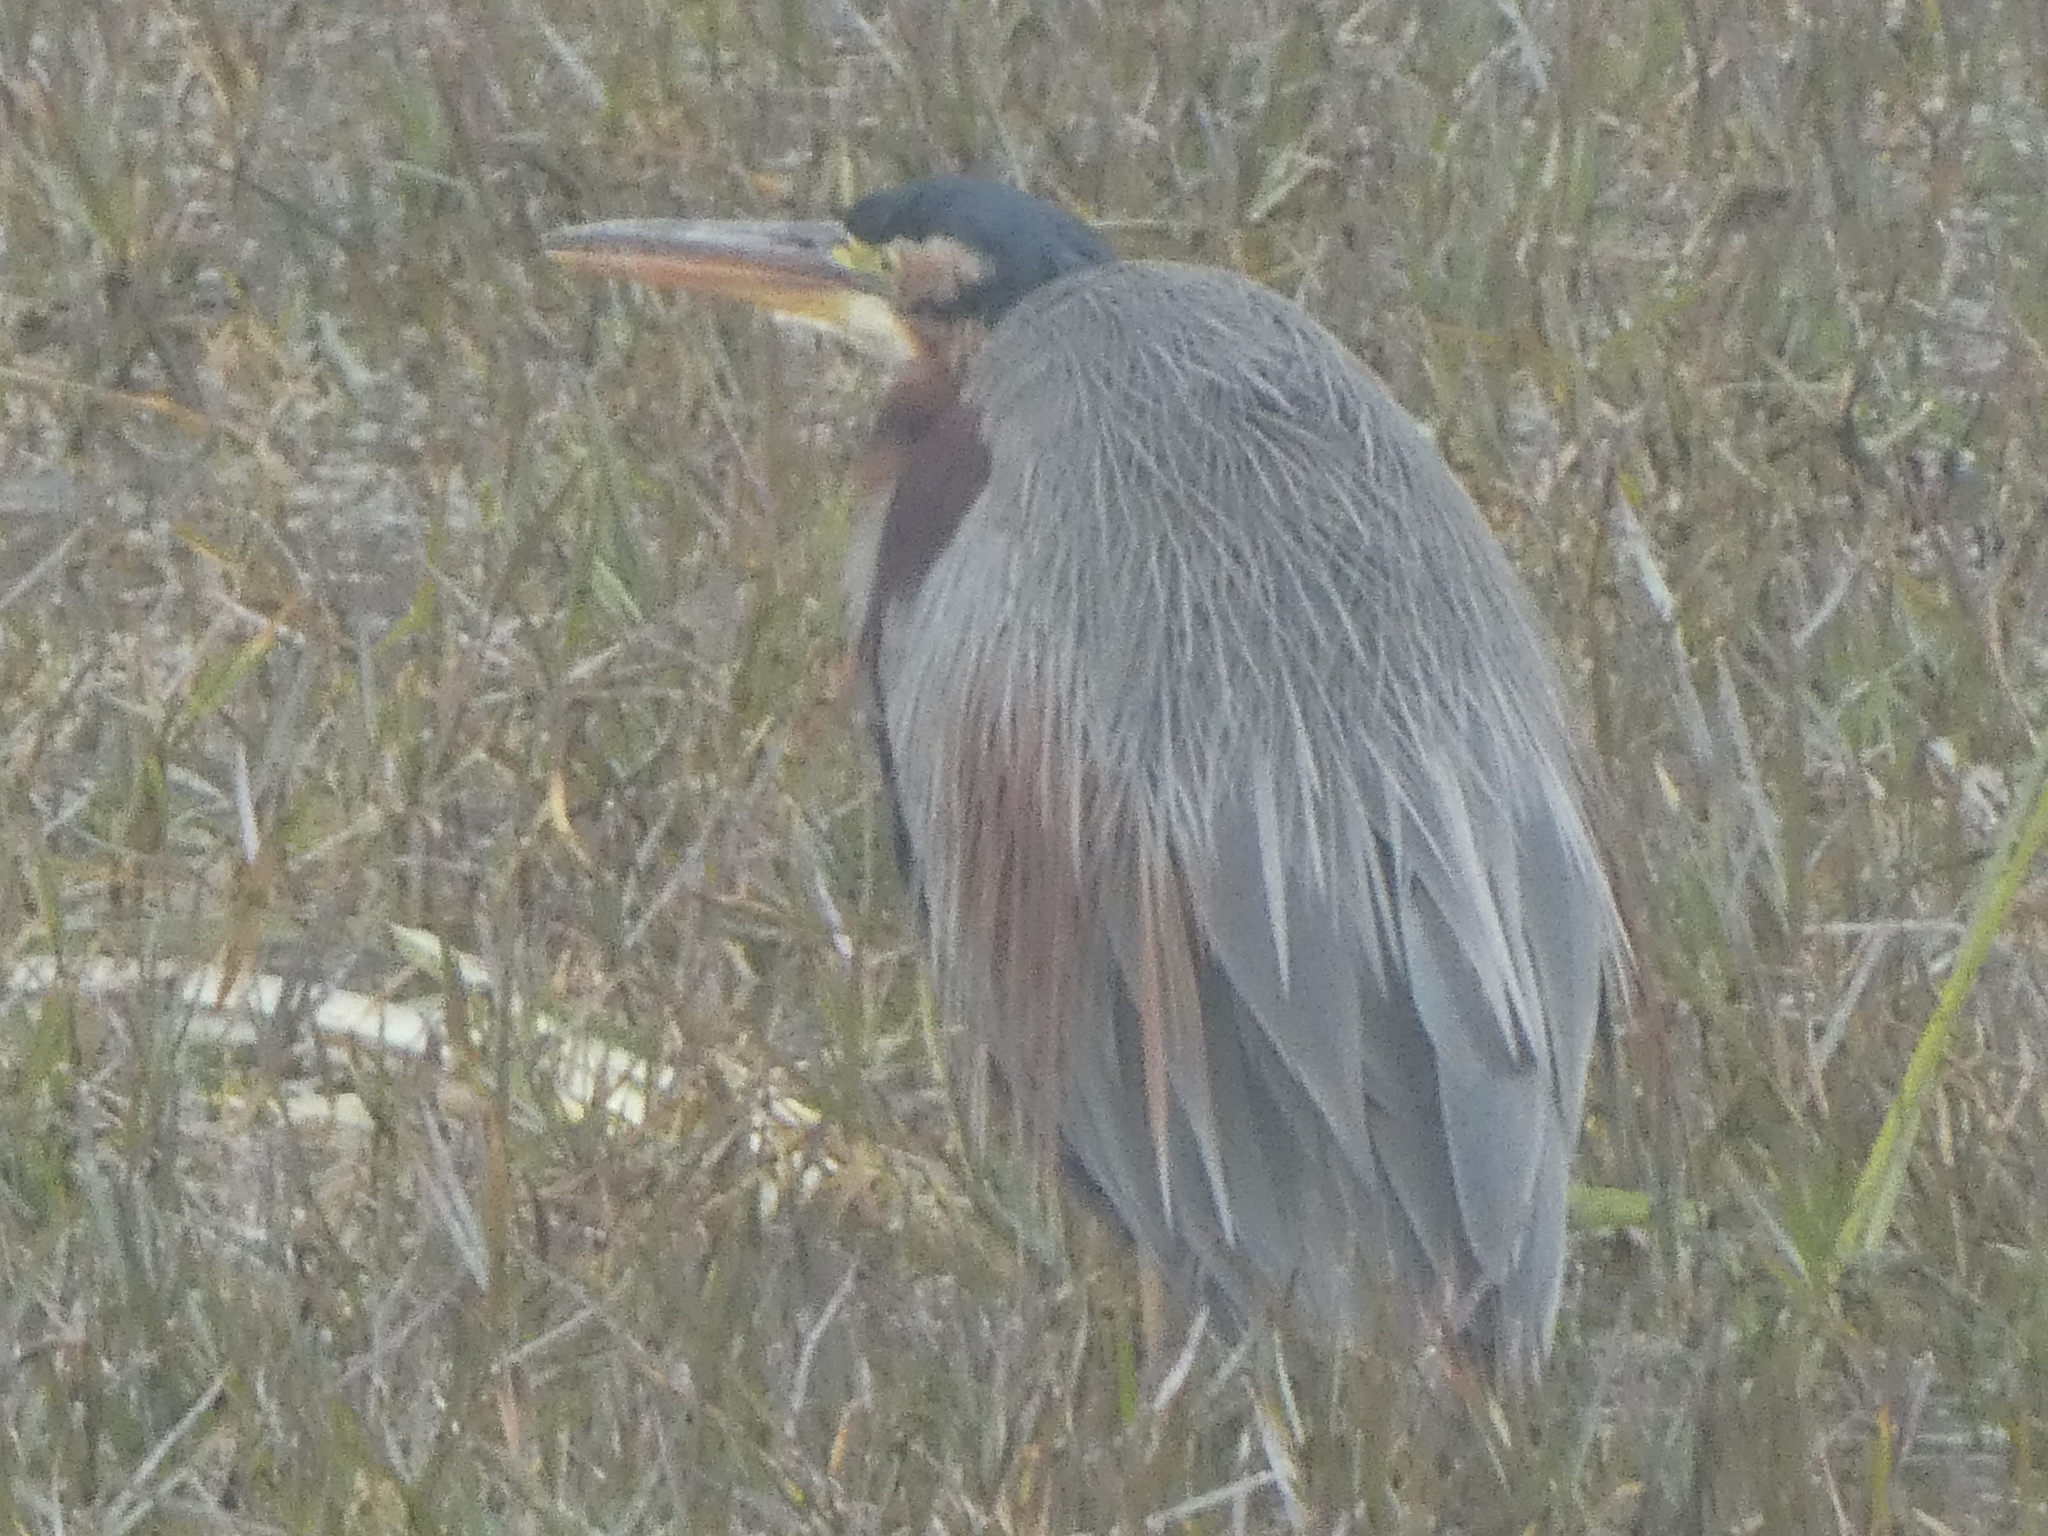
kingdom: Animalia
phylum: Chordata
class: Aves
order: Pelecaniformes
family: Ardeidae
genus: Ardea
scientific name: Ardea purpurea
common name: Purple heron
